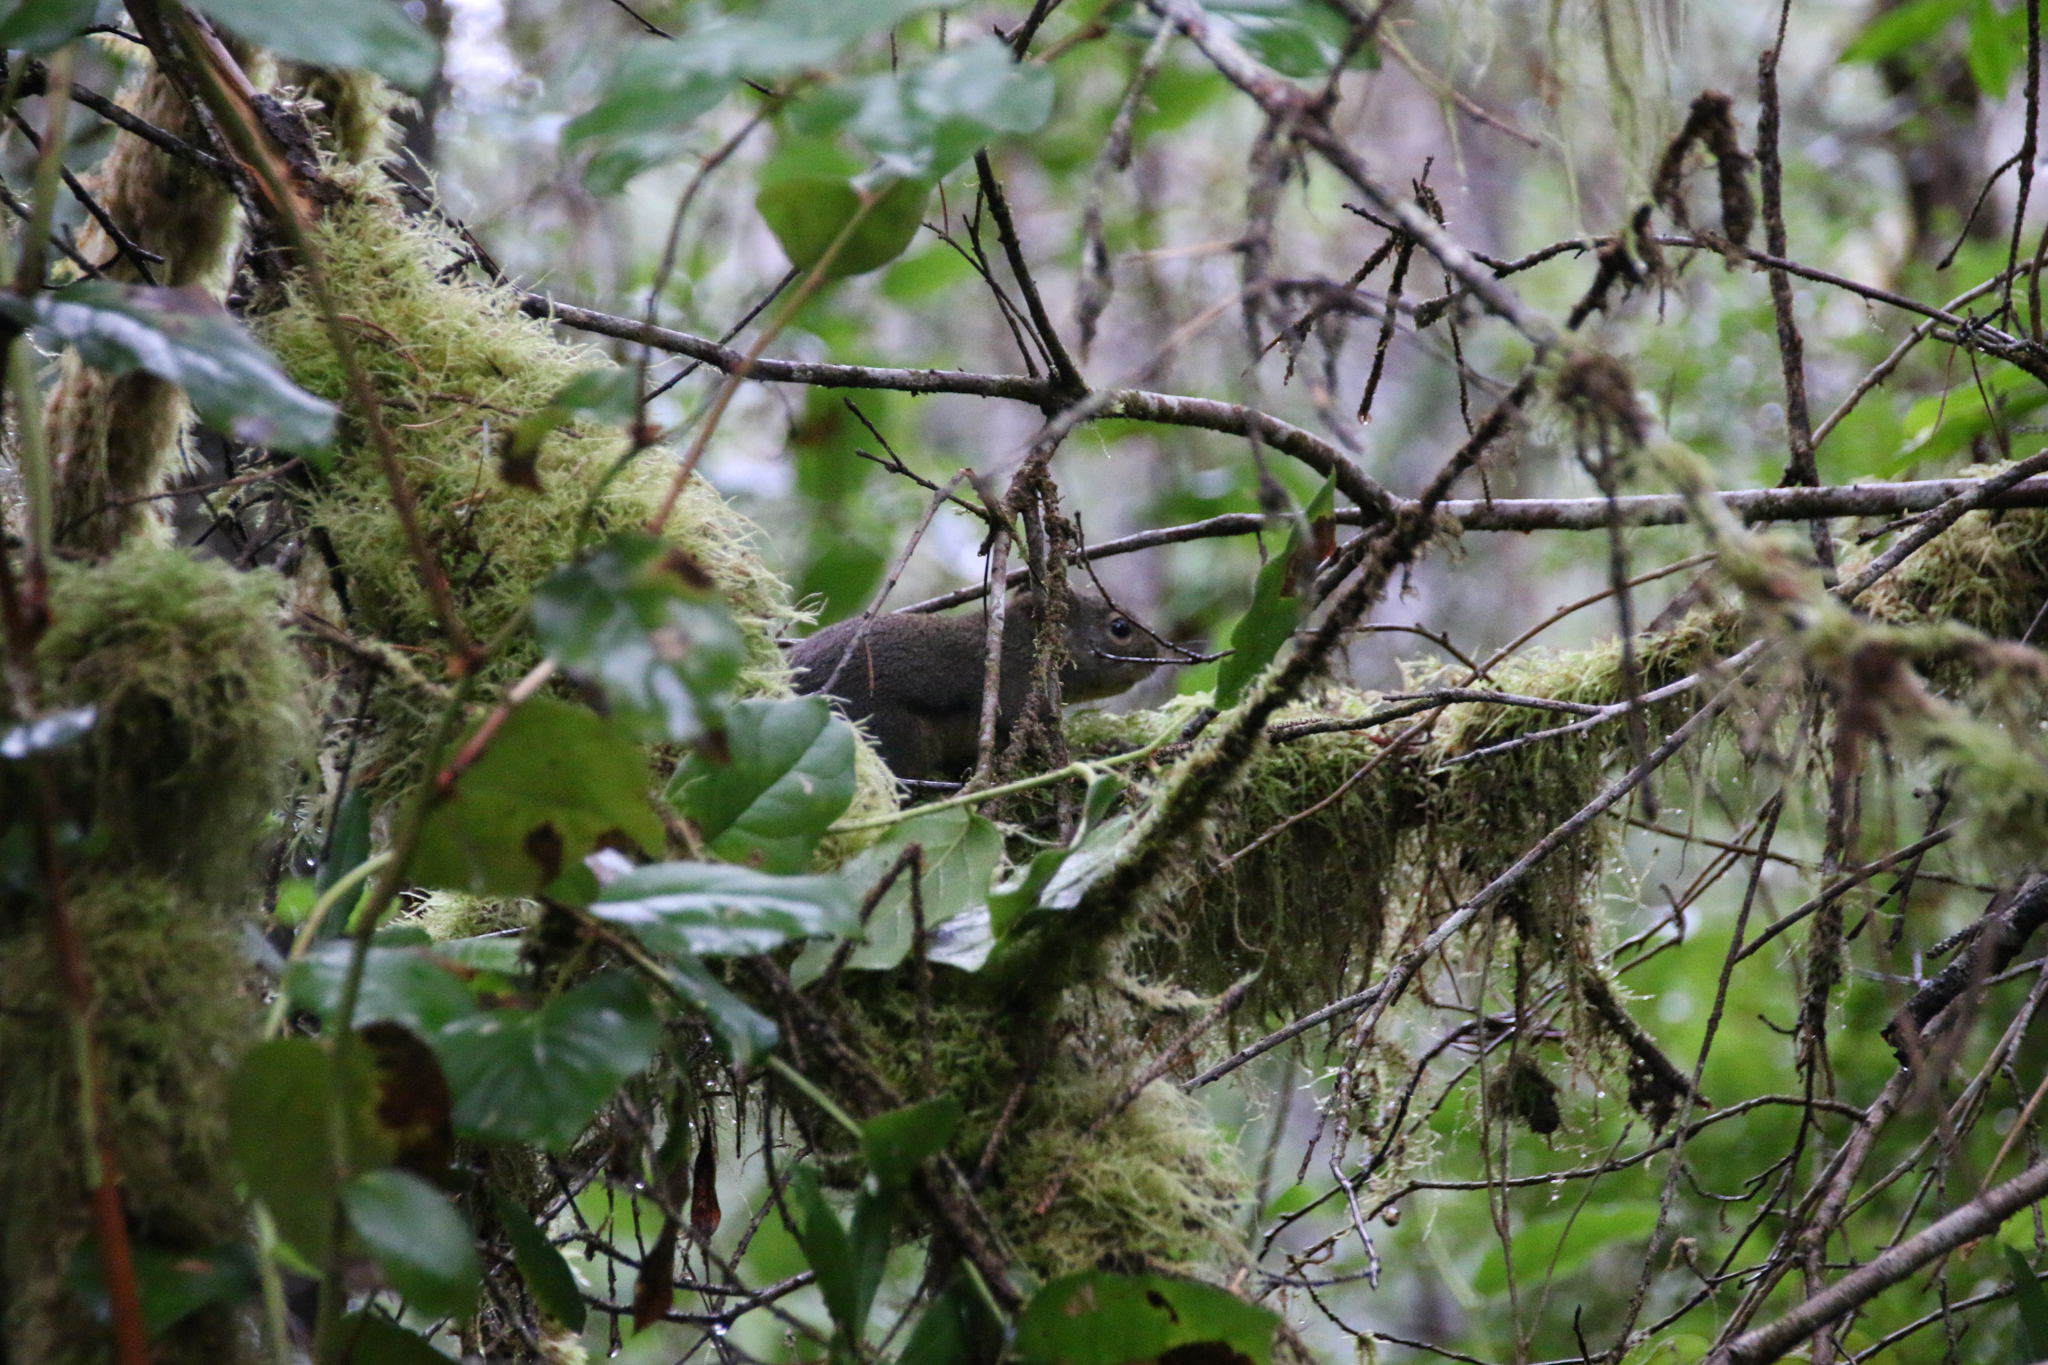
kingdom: Animalia
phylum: Chordata
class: Mammalia
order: Rodentia
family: Sciuridae
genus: Tamiasciurus
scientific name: Tamiasciurus douglasii
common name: Douglas's squirrel
